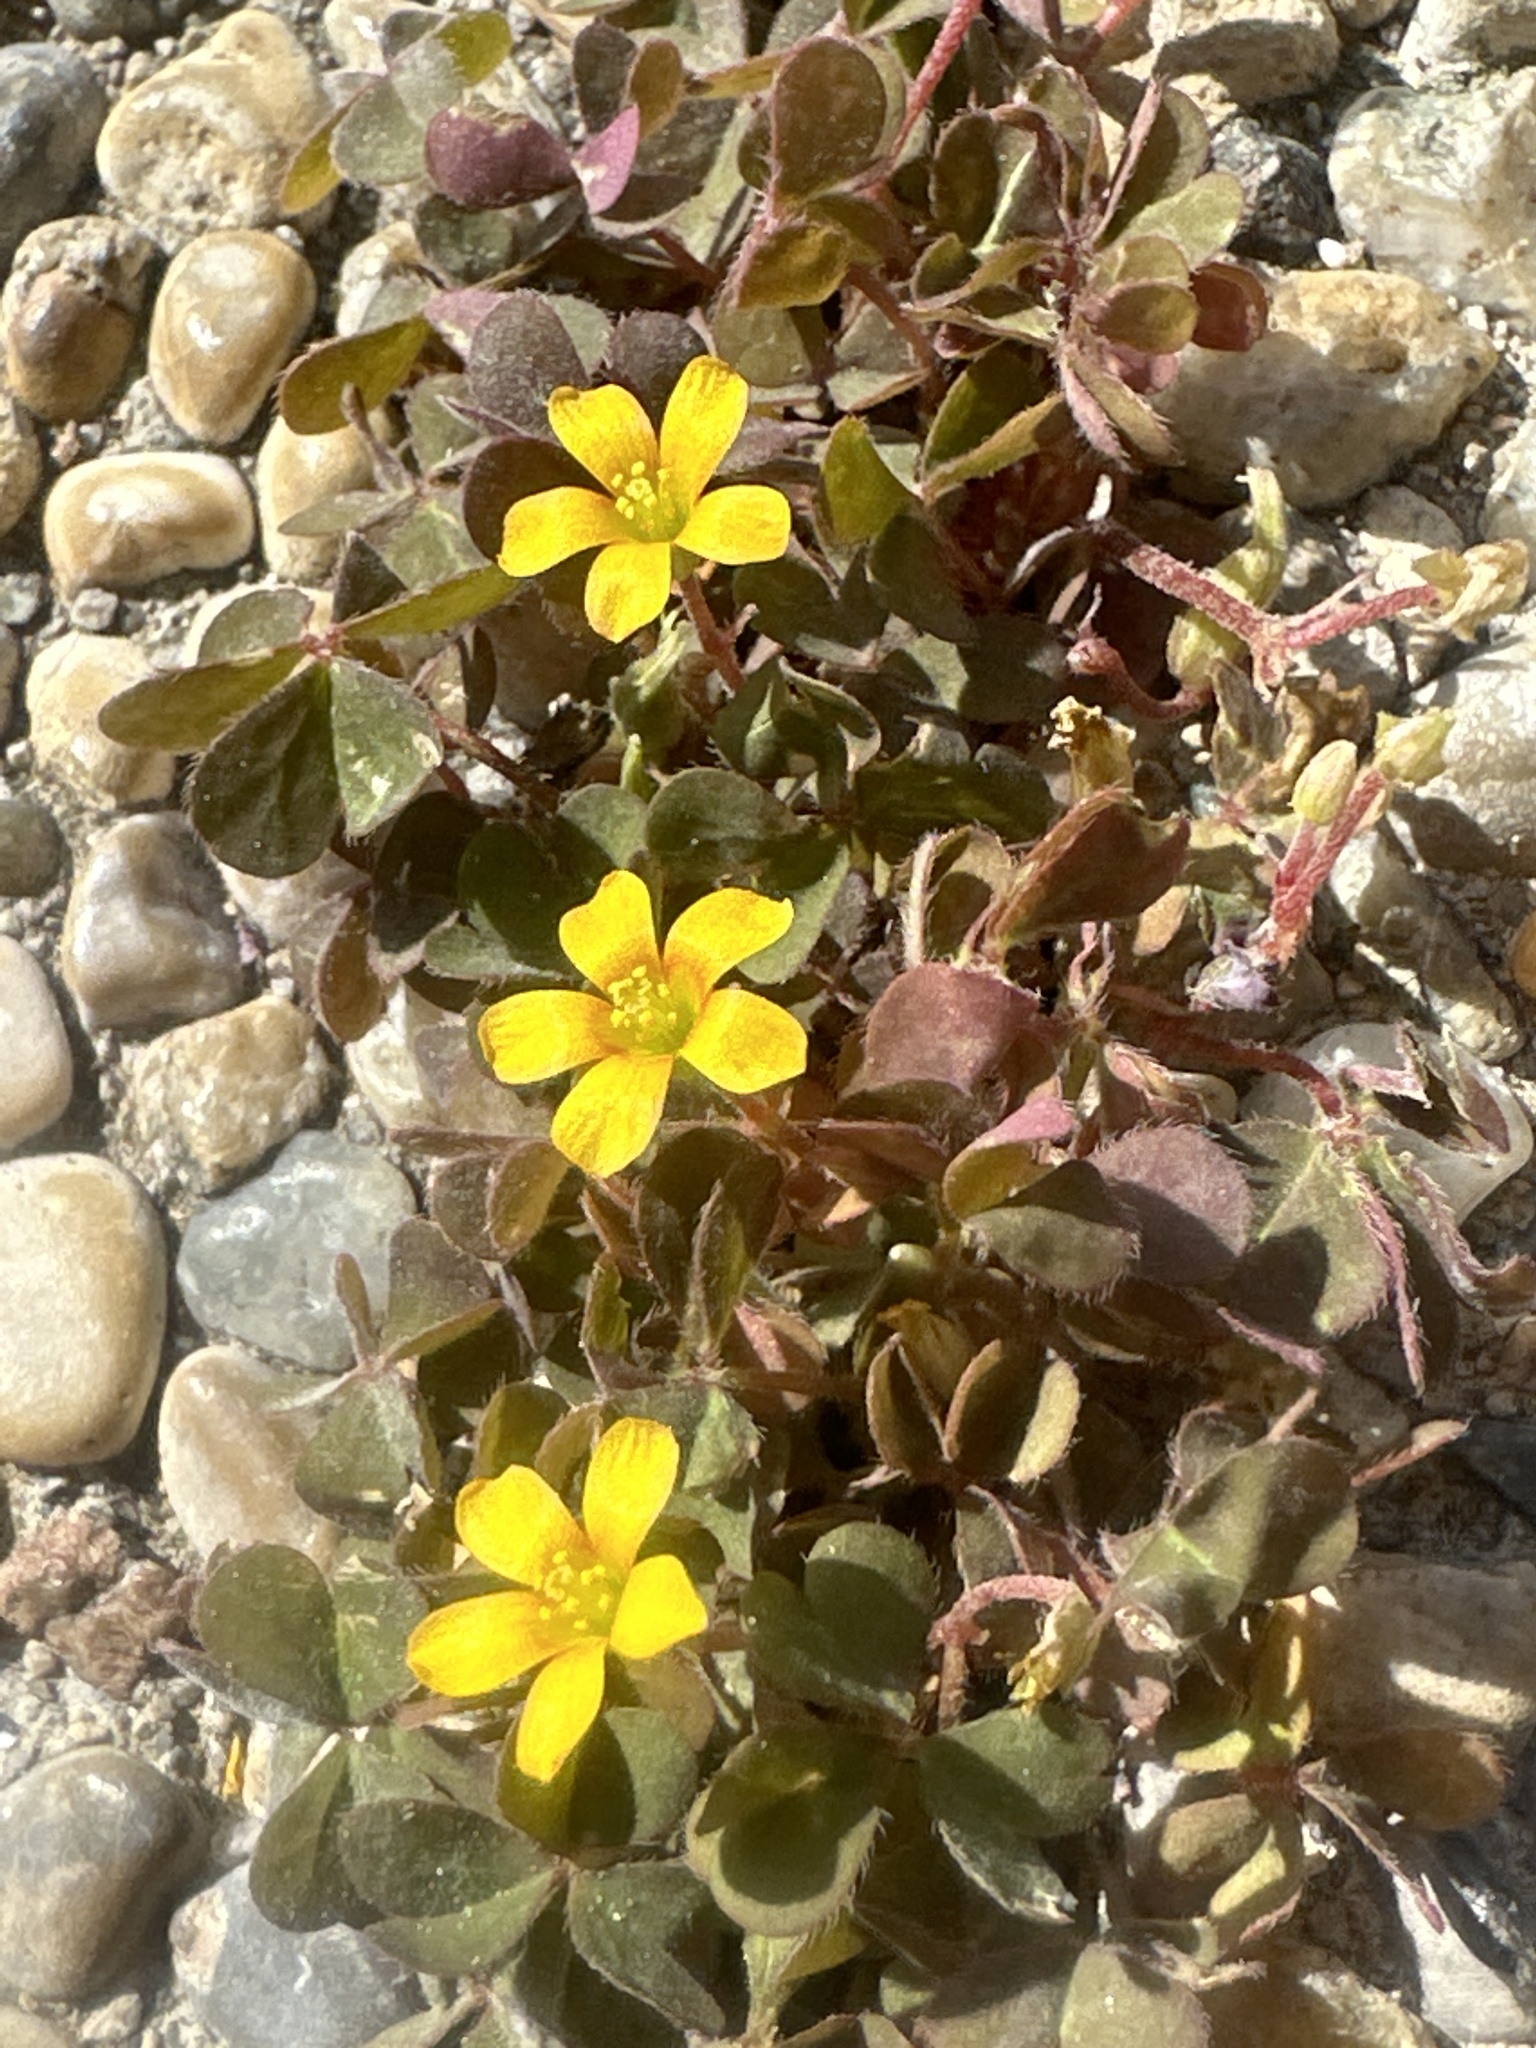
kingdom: Plantae
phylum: Tracheophyta
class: Magnoliopsida
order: Oxalidales
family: Oxalidaceae
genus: Oxalis
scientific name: Oxalis corniculata
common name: Procumbent yellow-sorrel
